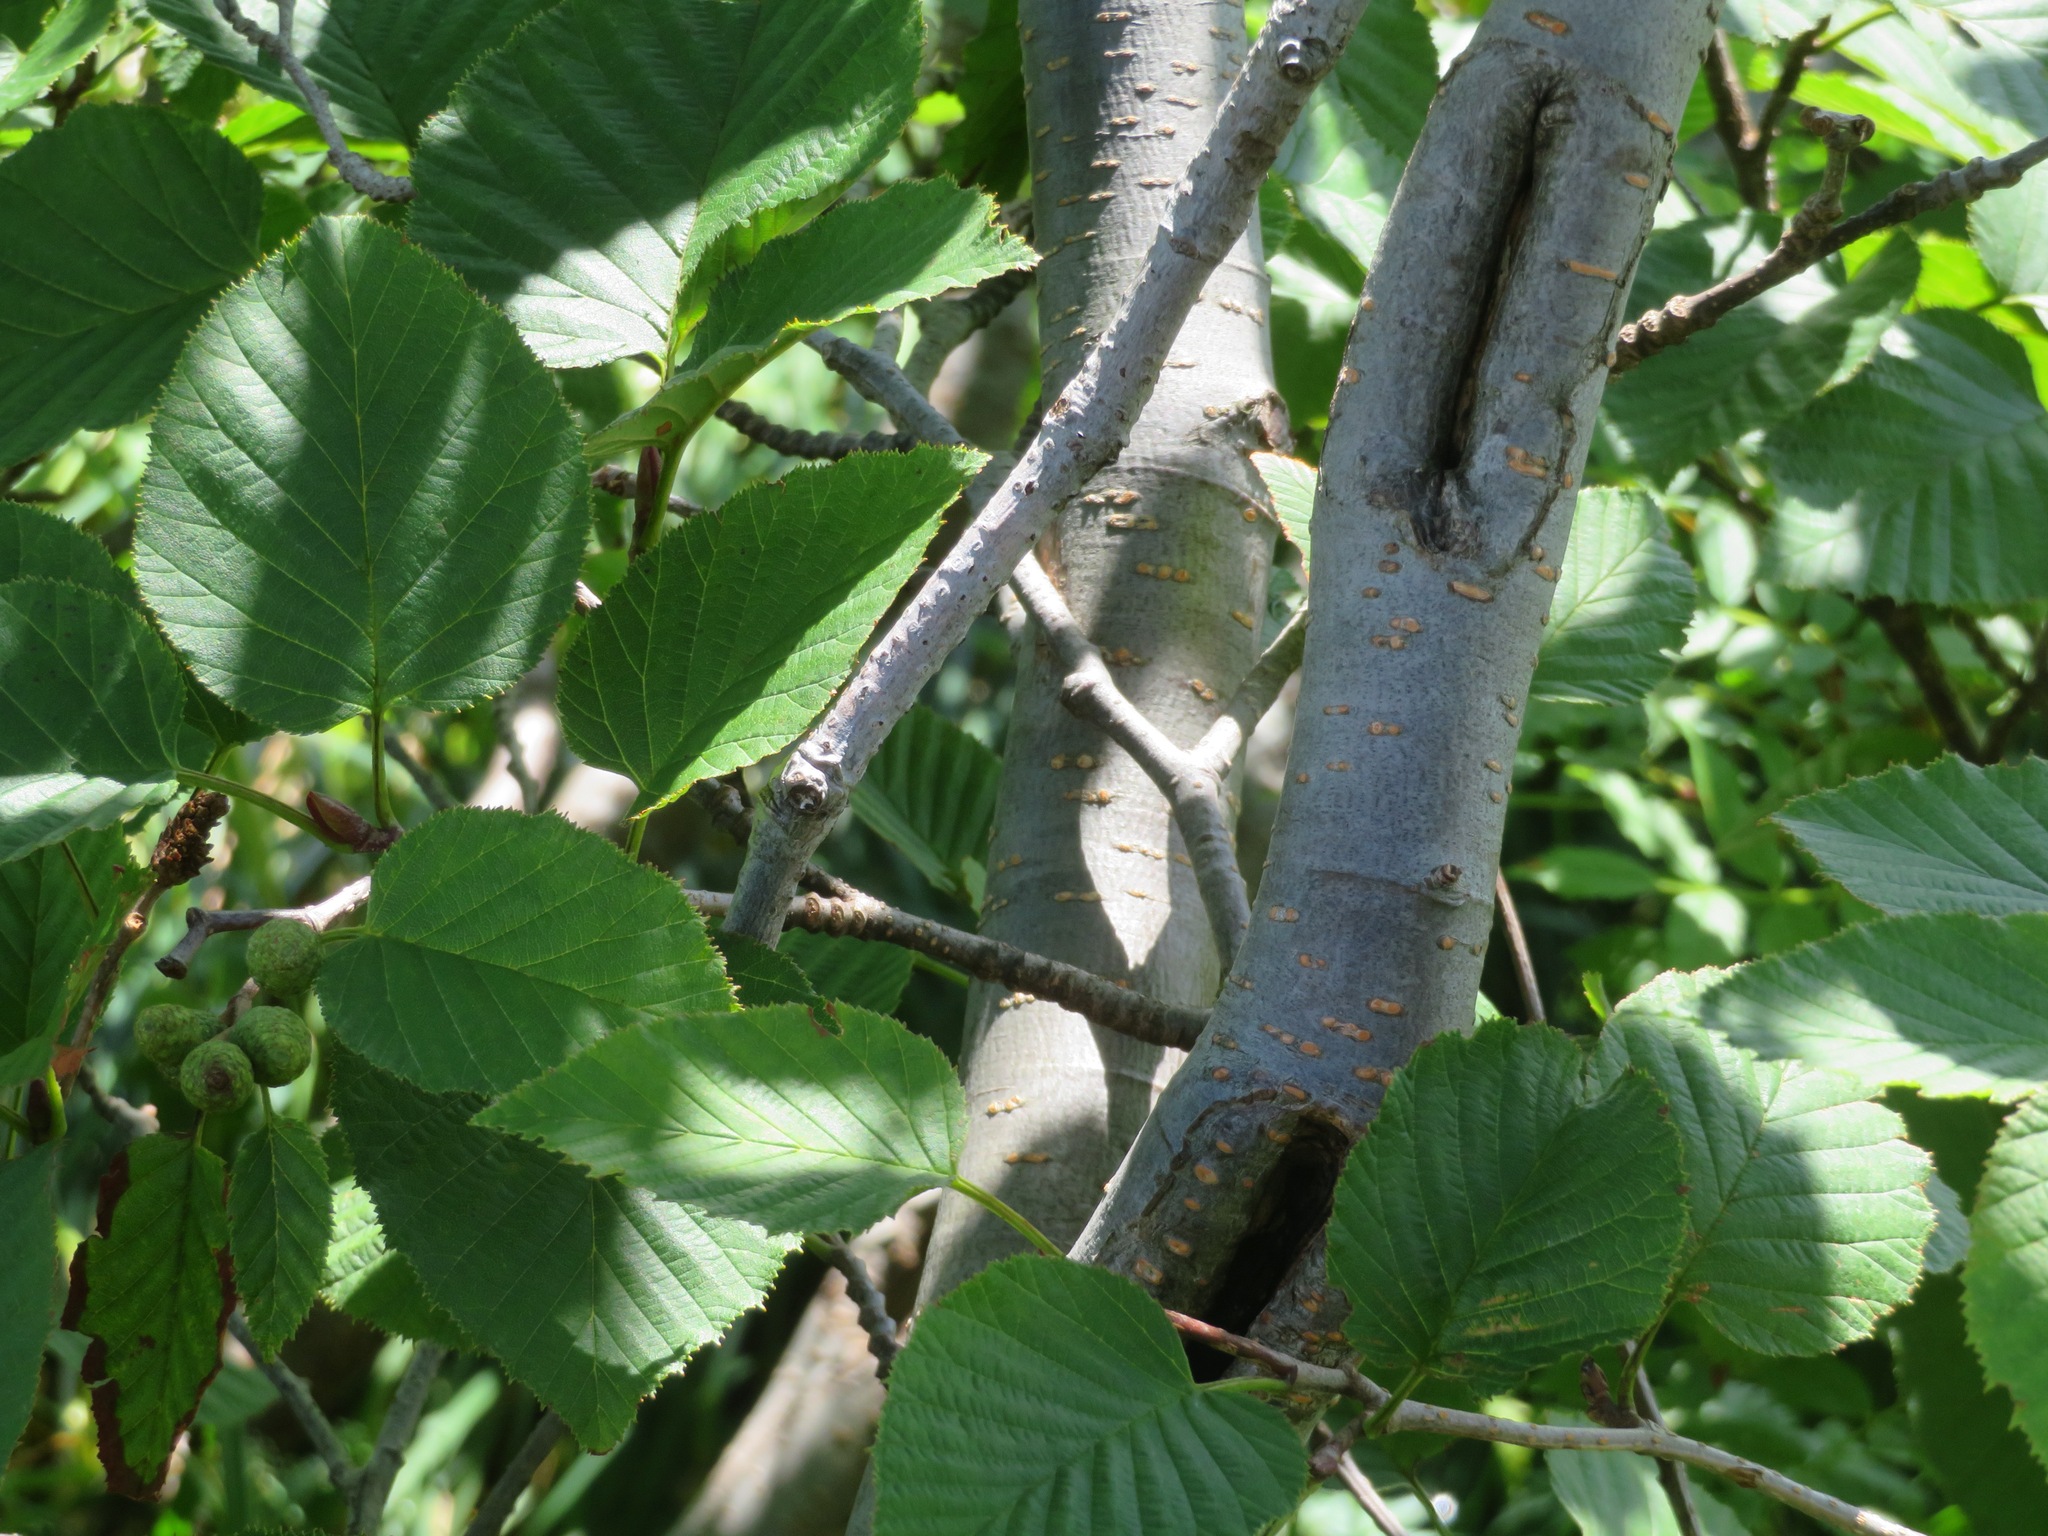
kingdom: Plantae
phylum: Tracheophyta
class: Magnoliopsida
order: Fagales
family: Betulaceae
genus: Alnus
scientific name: Alnus maximowiczii
